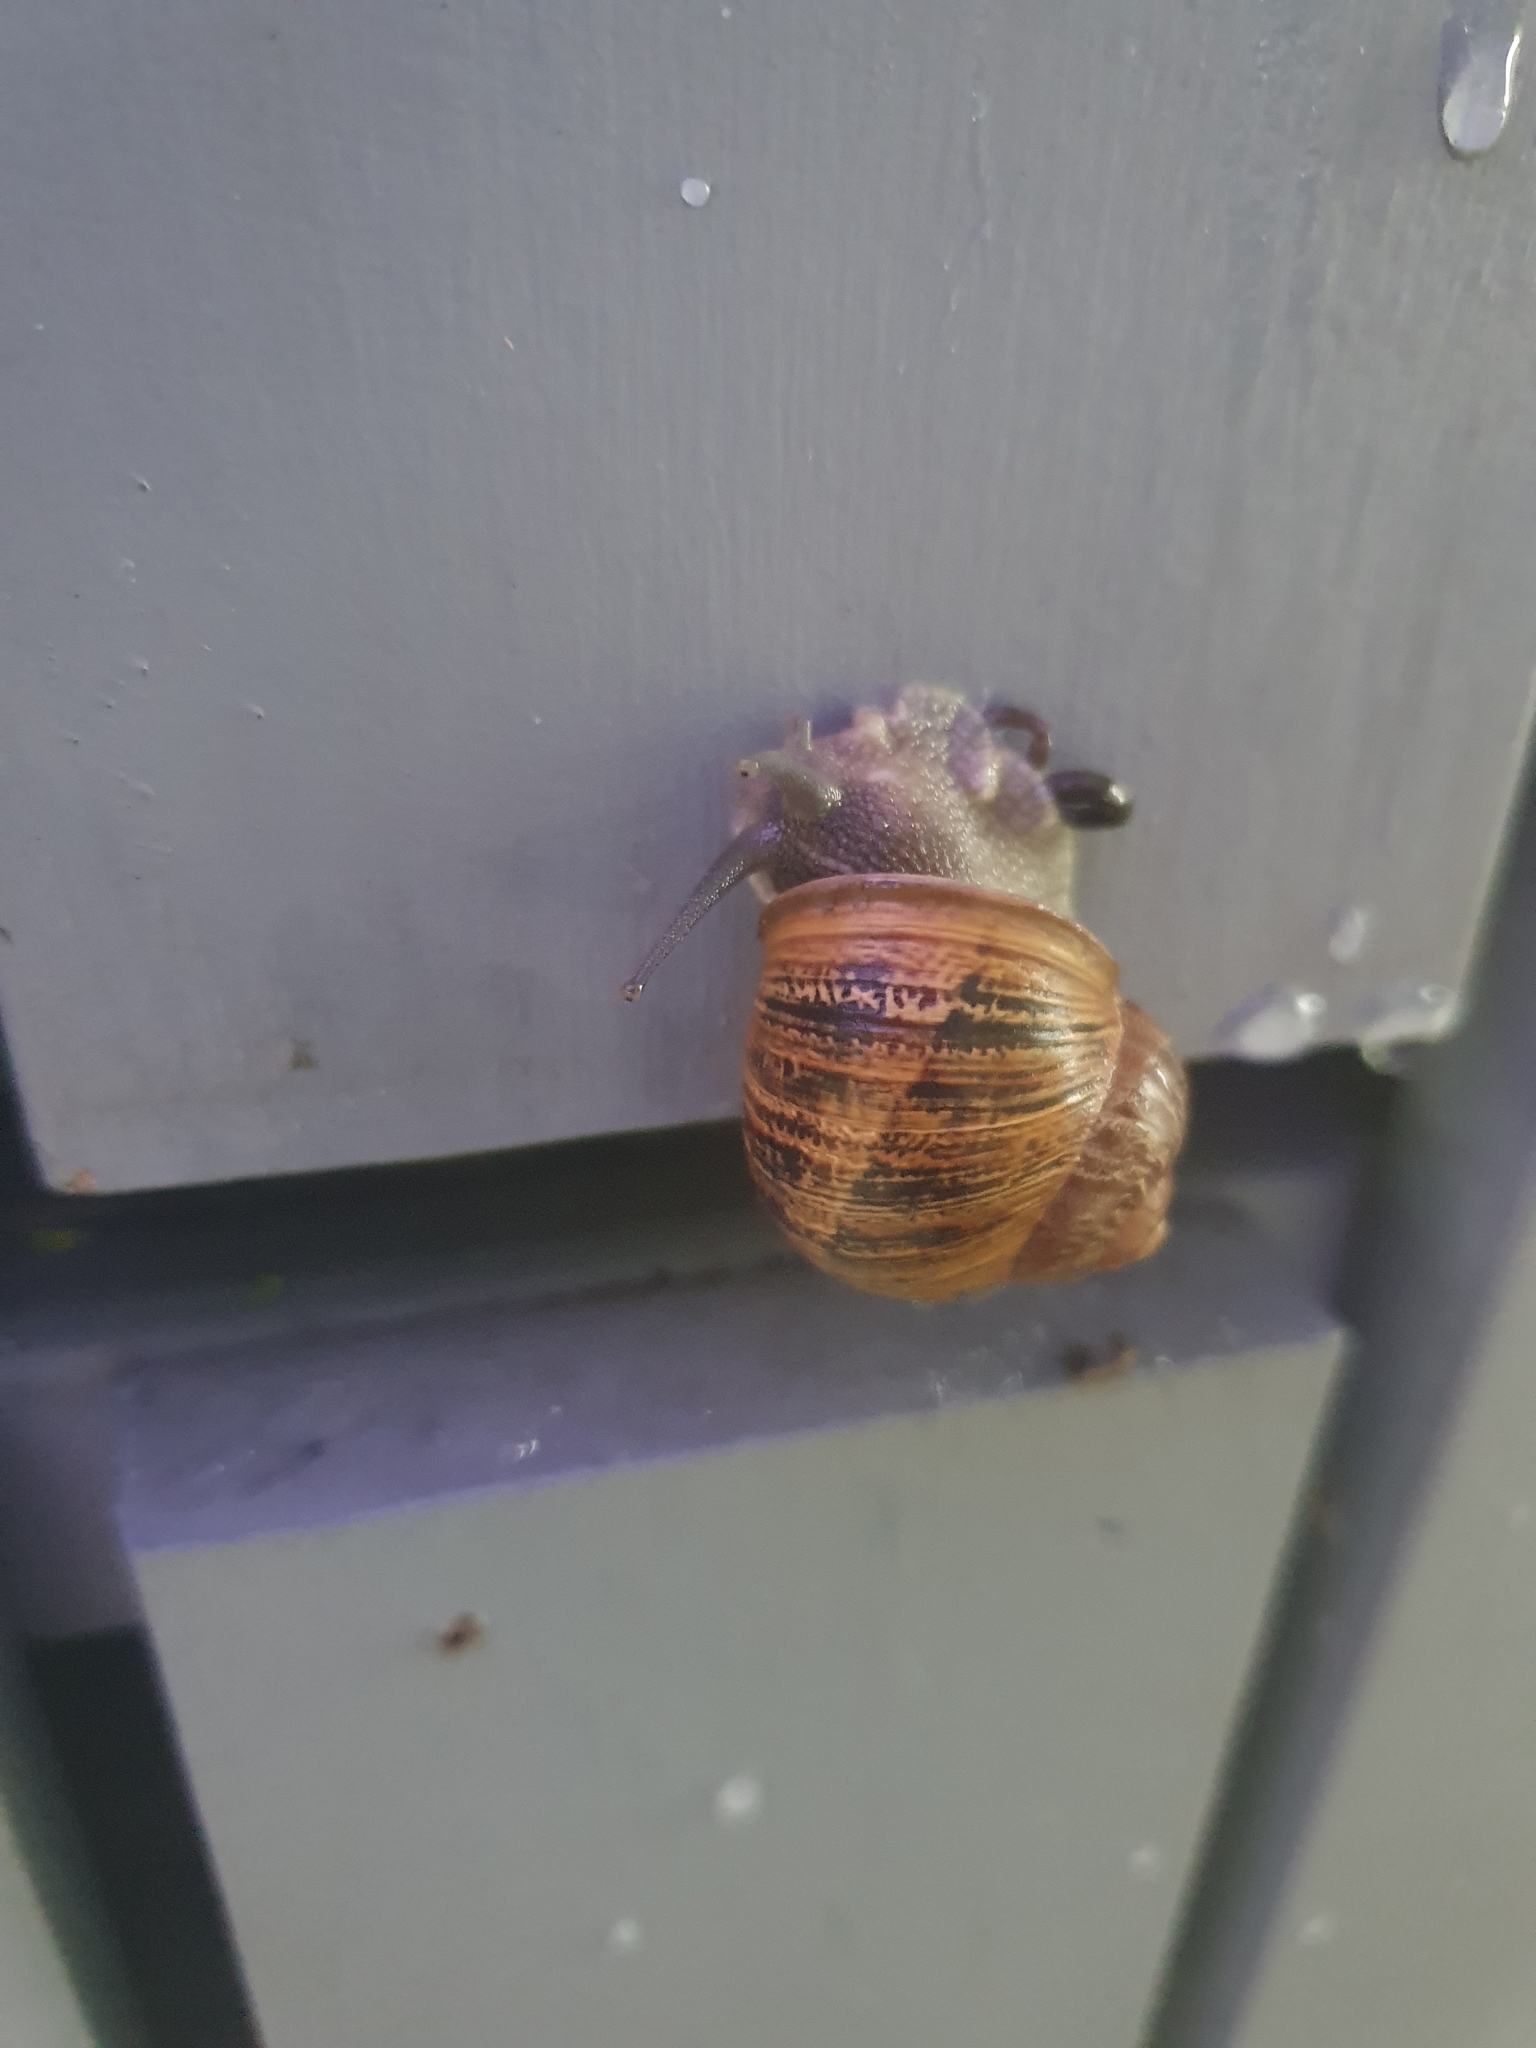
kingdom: Animalia
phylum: Mollusca
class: Gastropoda
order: Stylommatophora
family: Helicidae
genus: Cornu
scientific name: Cornu aspersum
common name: Brown garden snail
